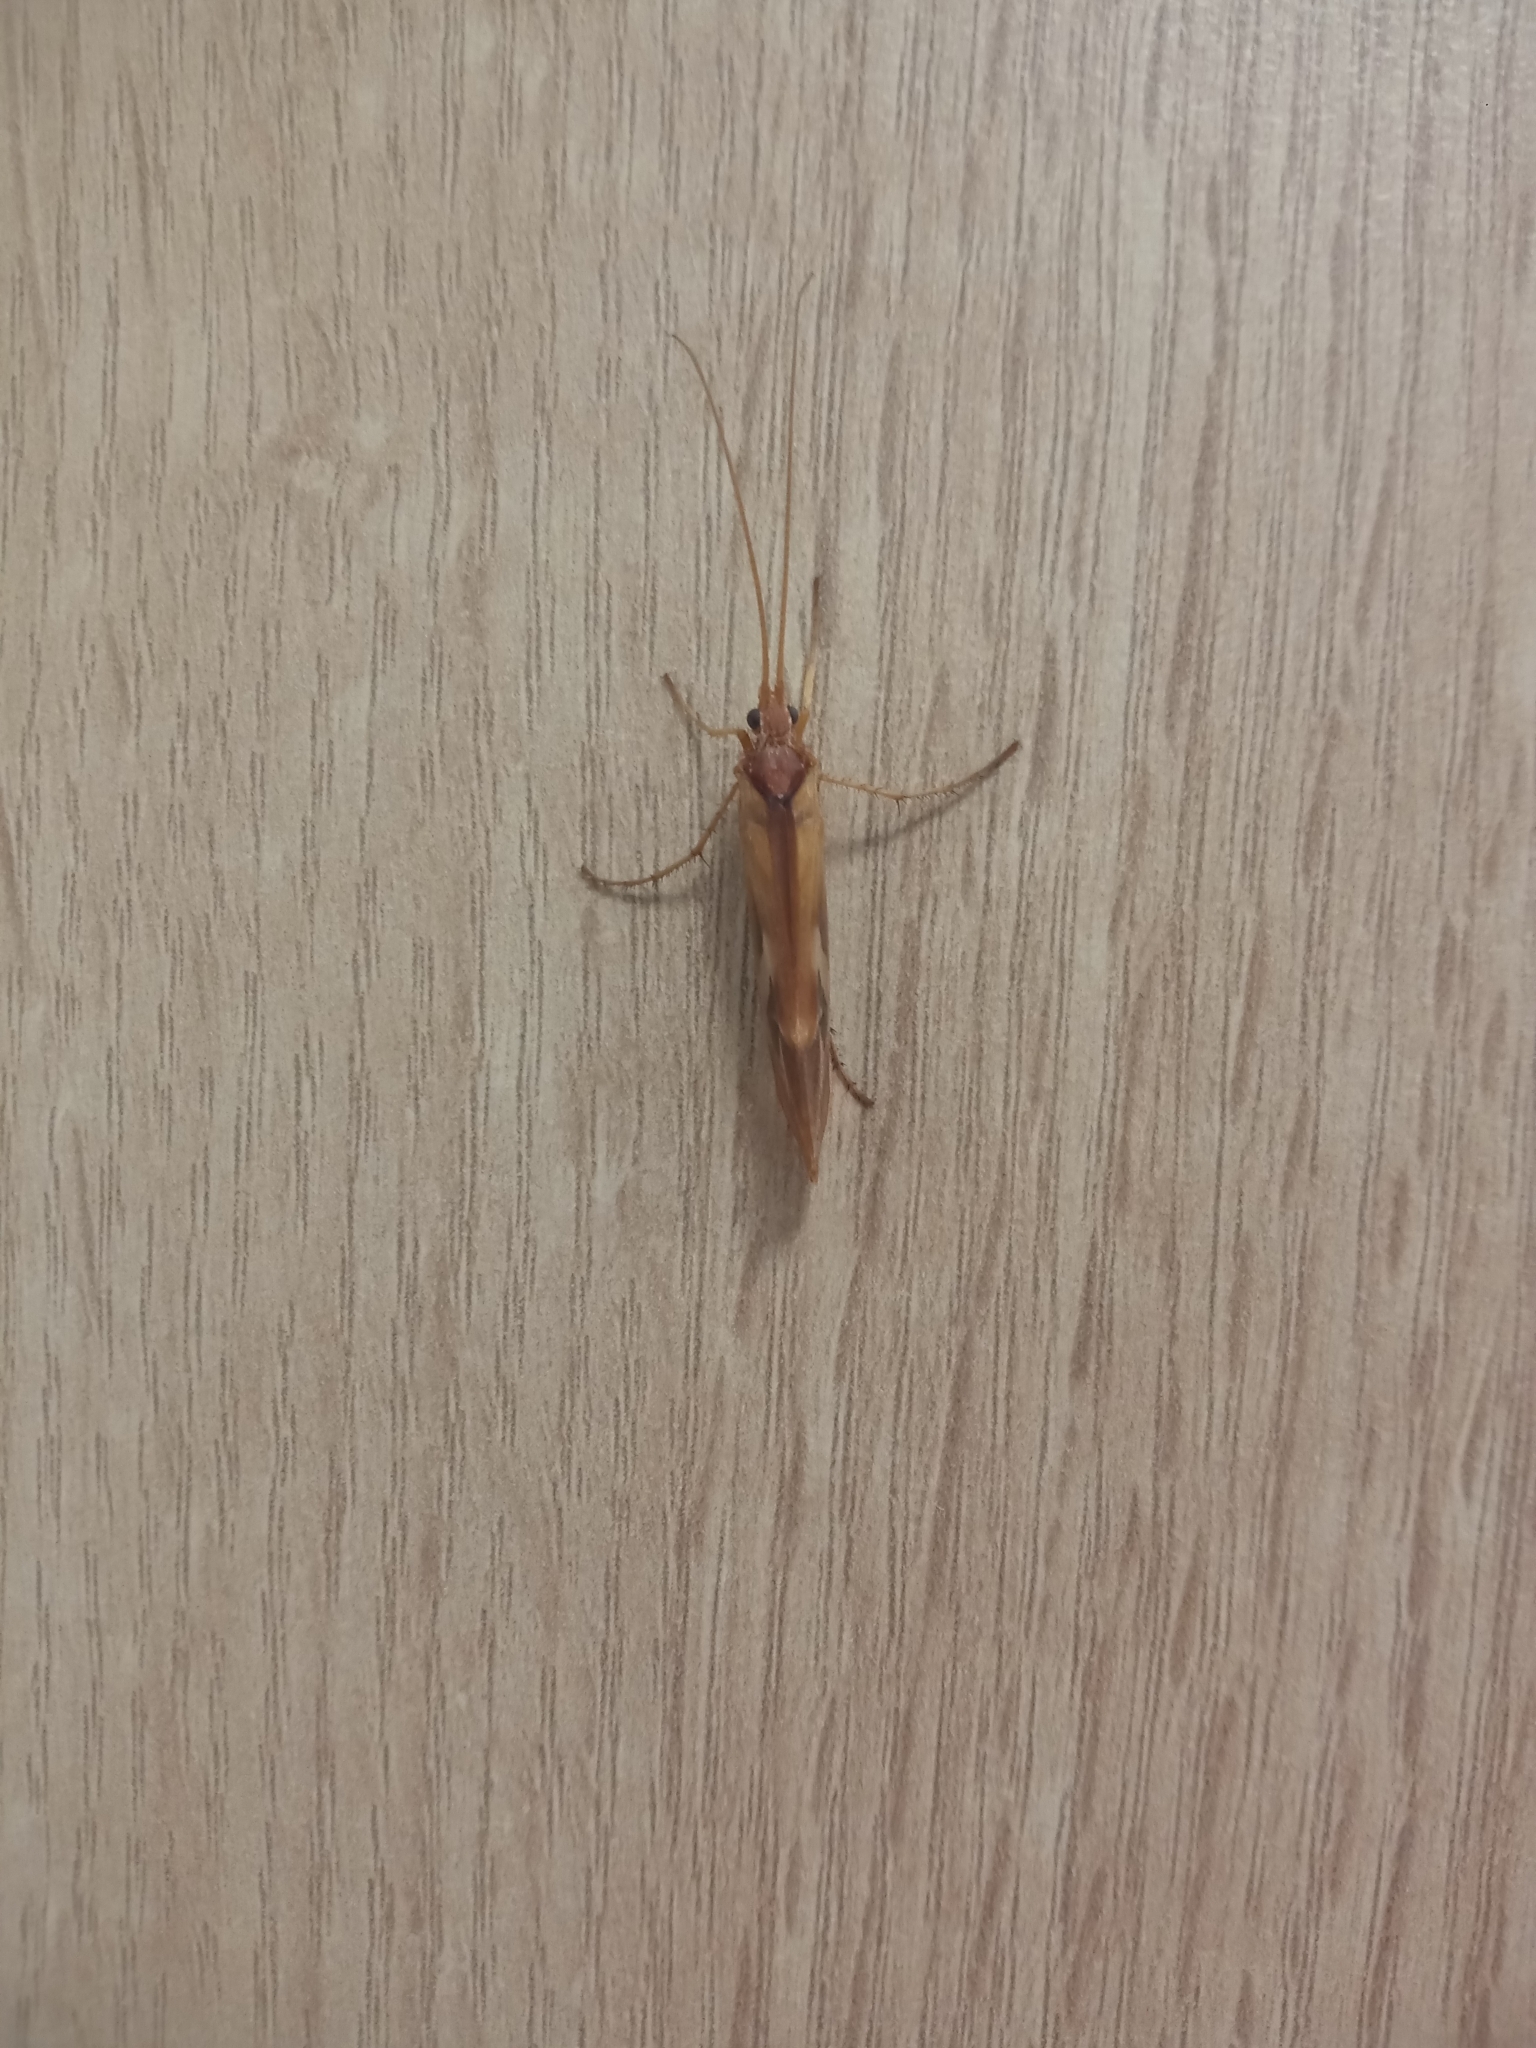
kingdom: Animalia
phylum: Arthropoda
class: Insecta
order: Trichoptera
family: Limnephilidae
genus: Limnephilus
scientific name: Limnephilus rhombicus
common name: Diamond northern caddisfly
